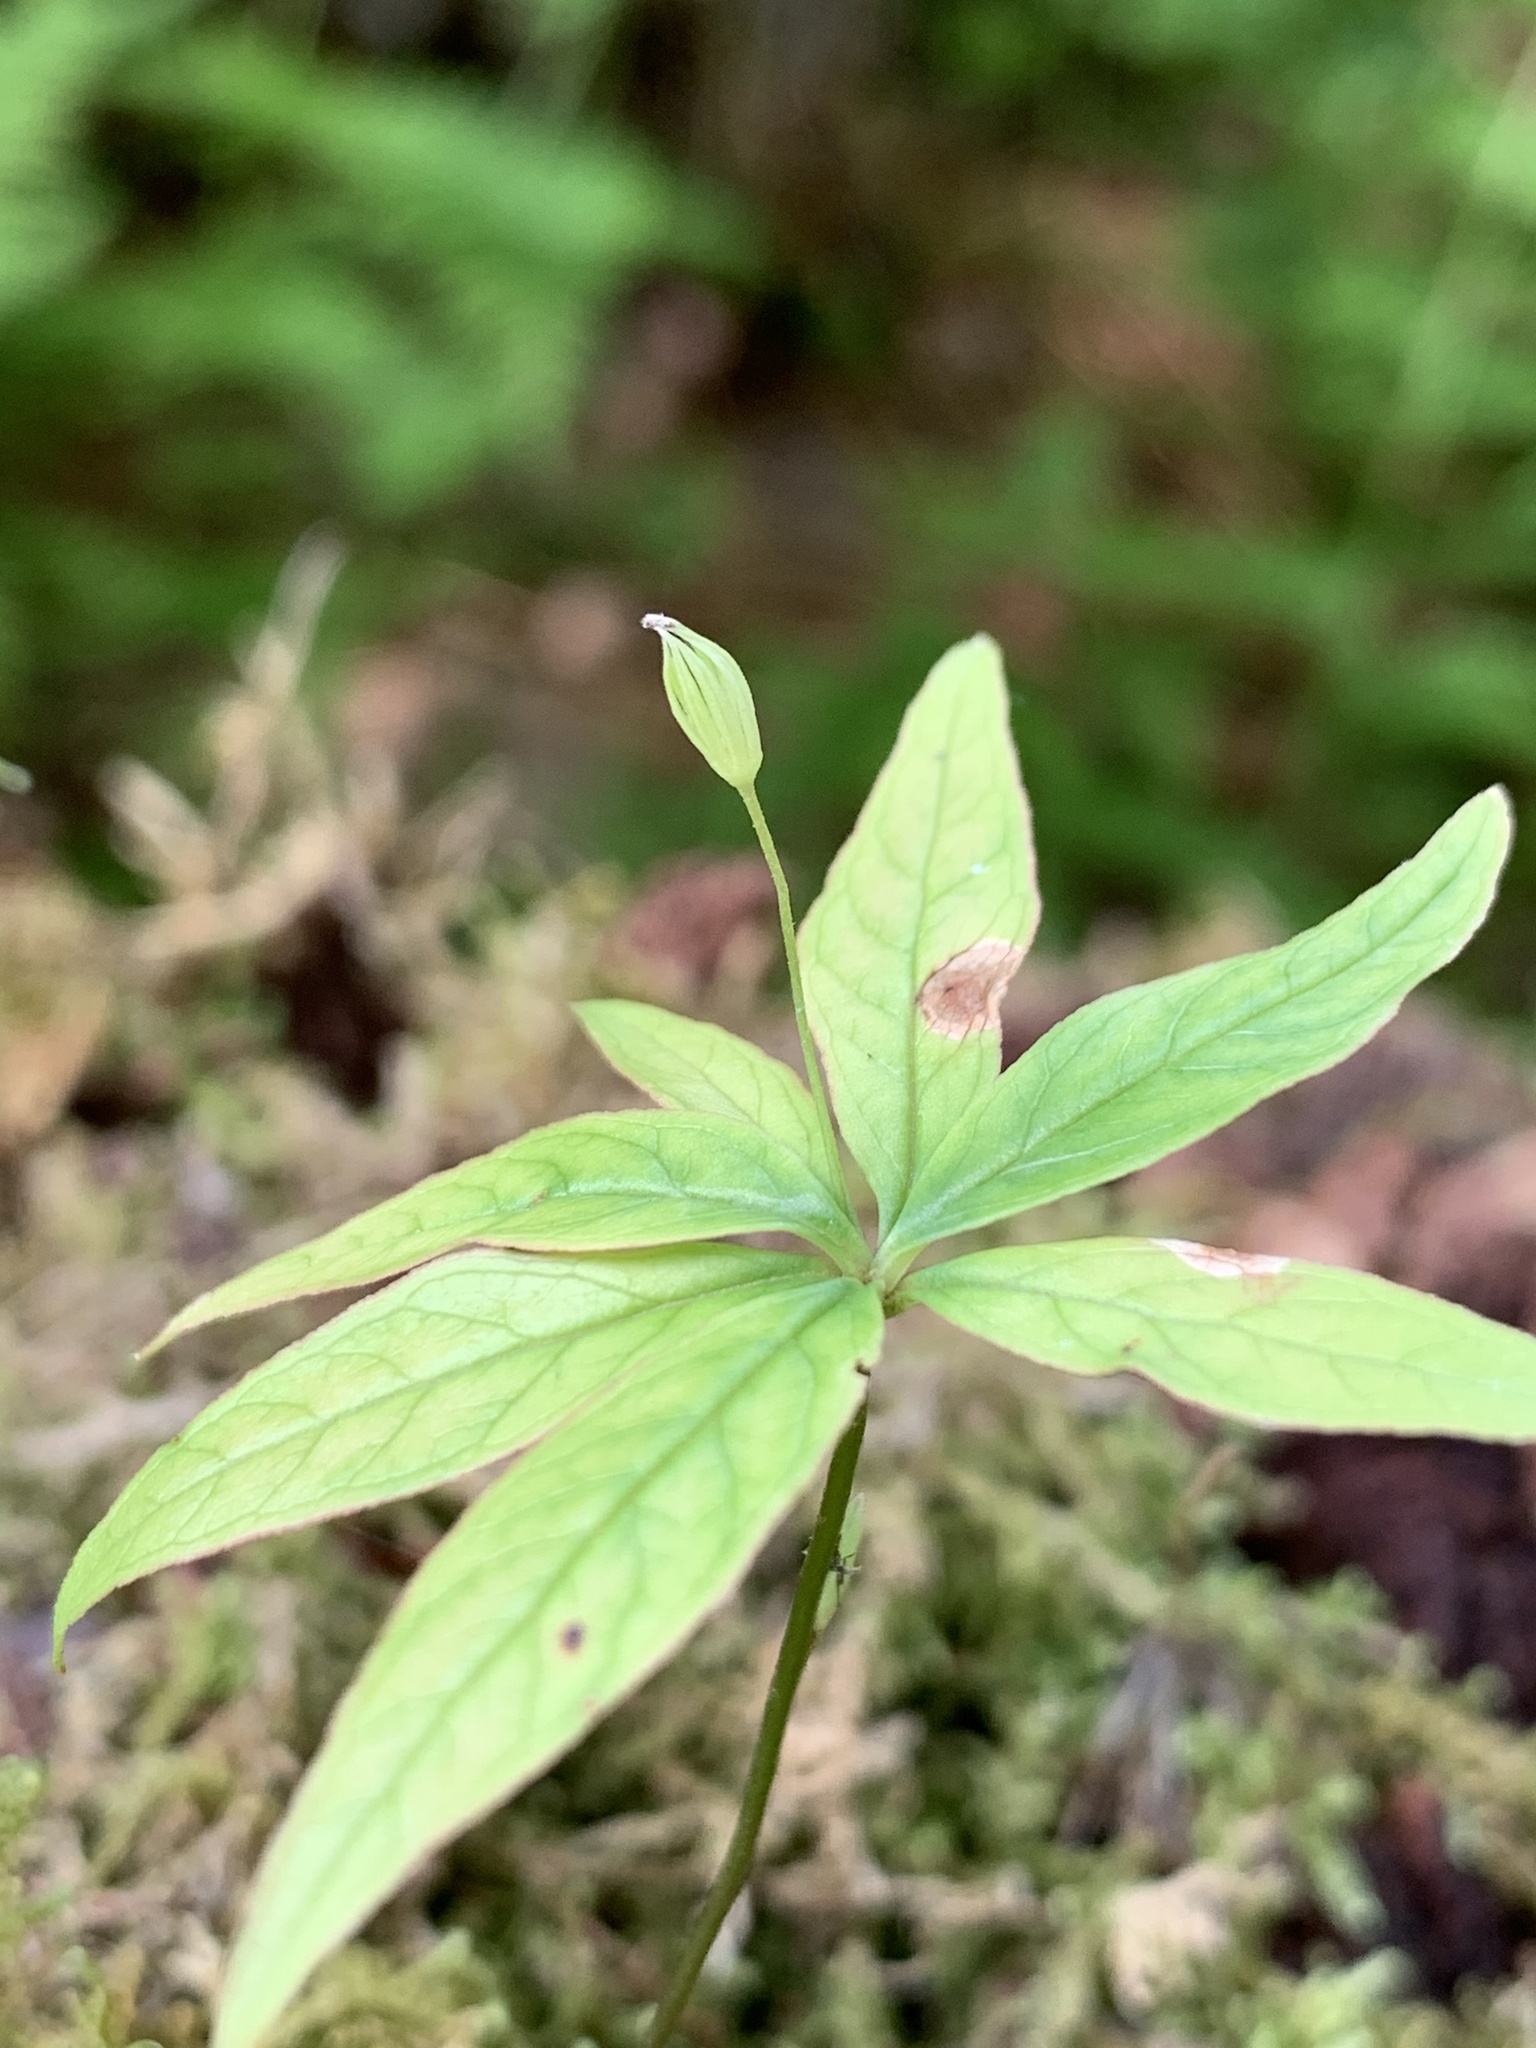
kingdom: Plantae
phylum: Tracheophyta
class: Magnoliopsida
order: Ericales
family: Primulaceae
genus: Lysimachia
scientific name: Lysimachia borealis
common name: American starflower
